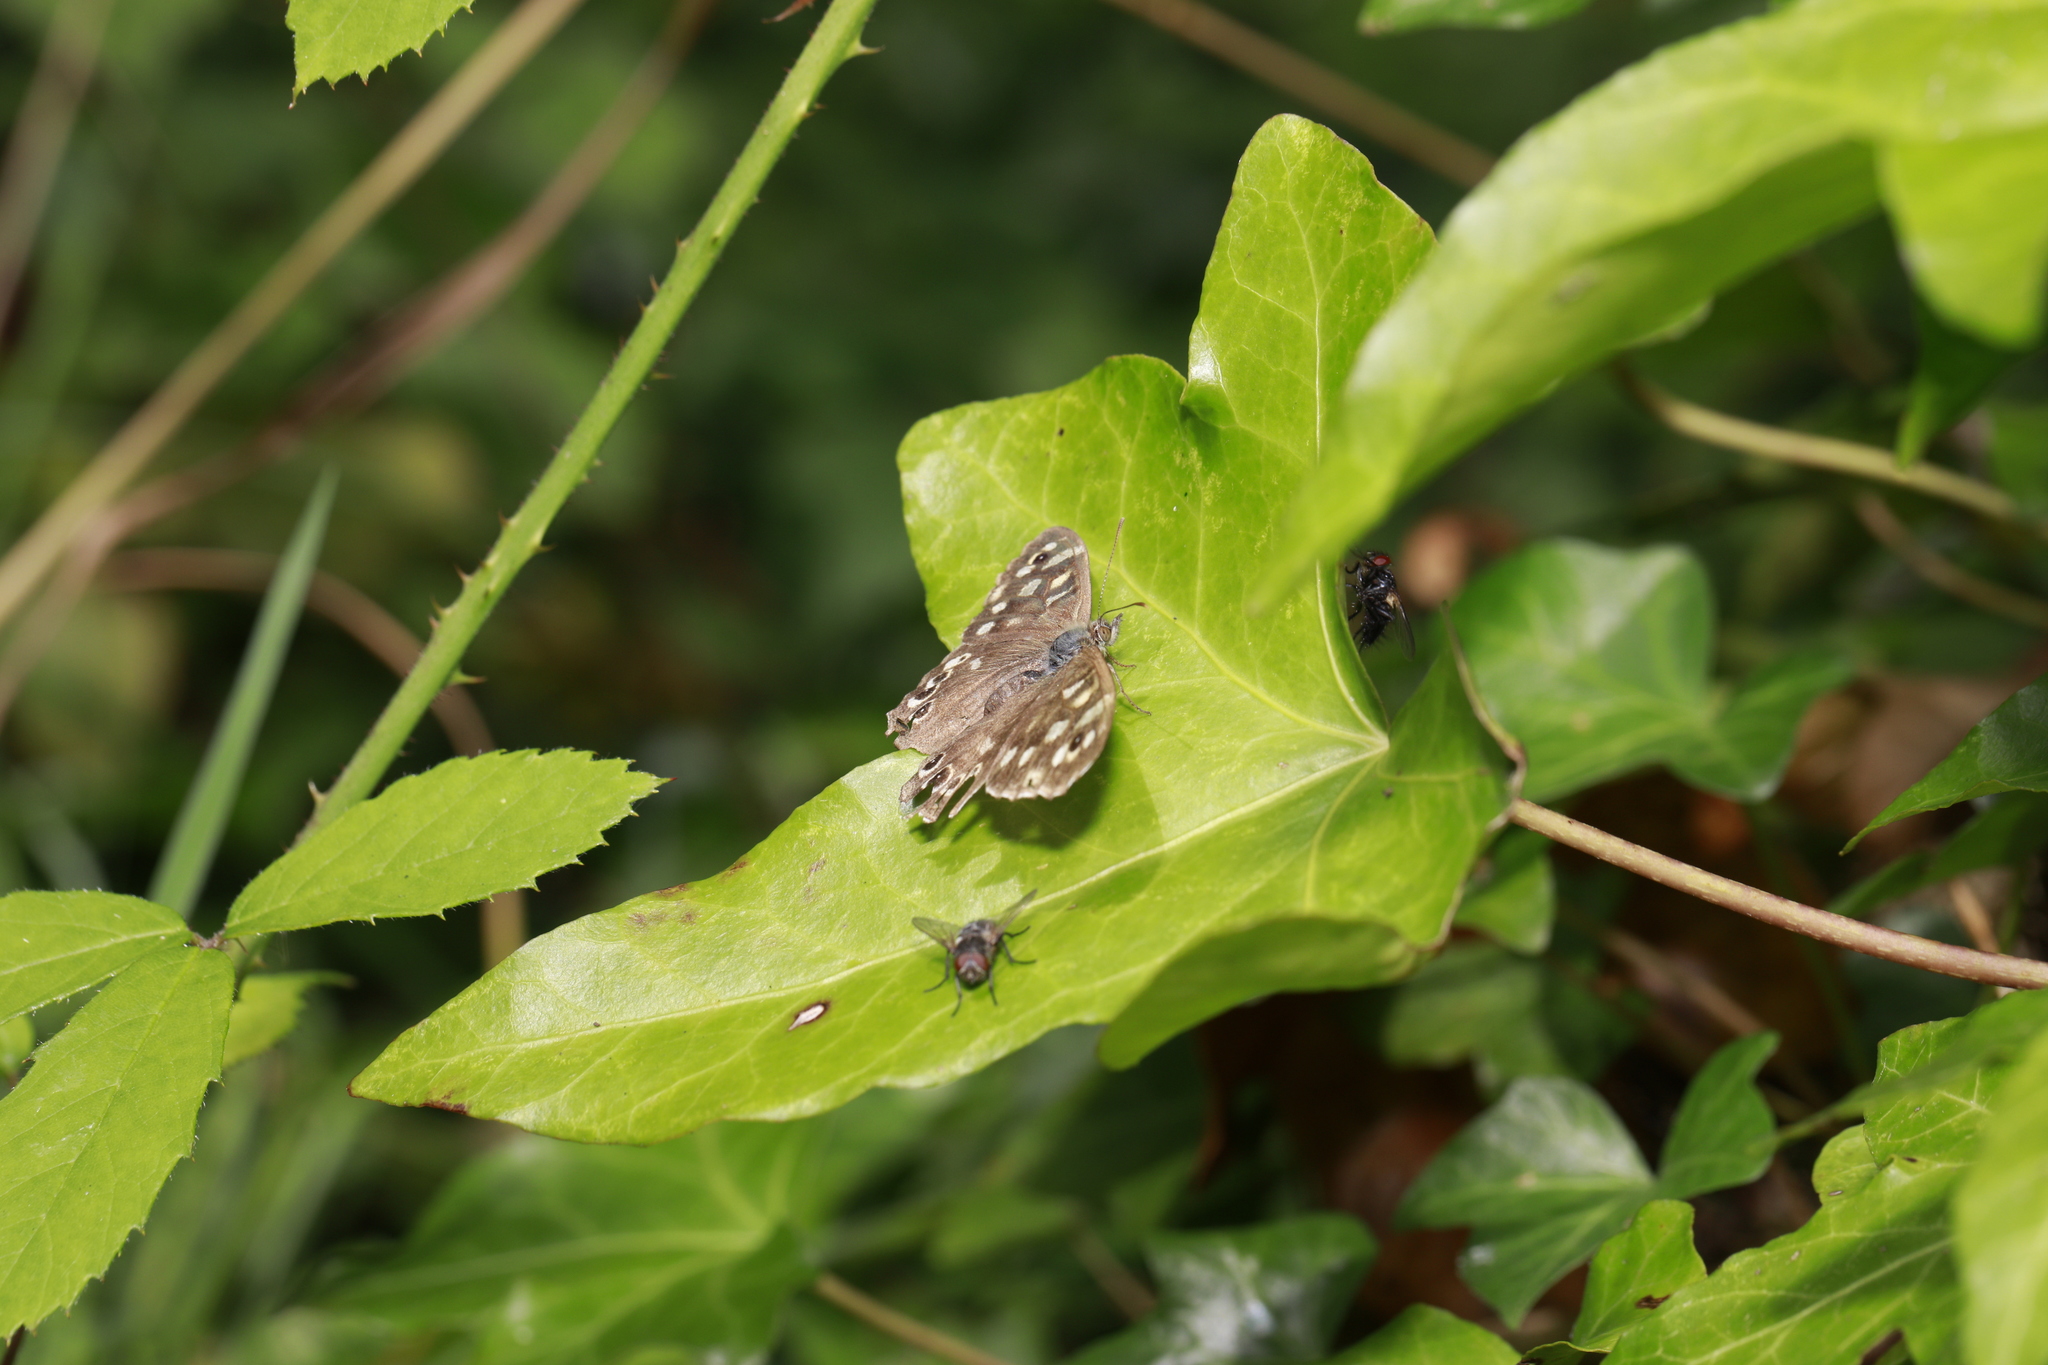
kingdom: Animalia
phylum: Arthropoda
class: Insecta
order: Lepidoptera
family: Nymphalidae
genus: Pararge
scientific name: Pararge aegeria
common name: Speckled wood
